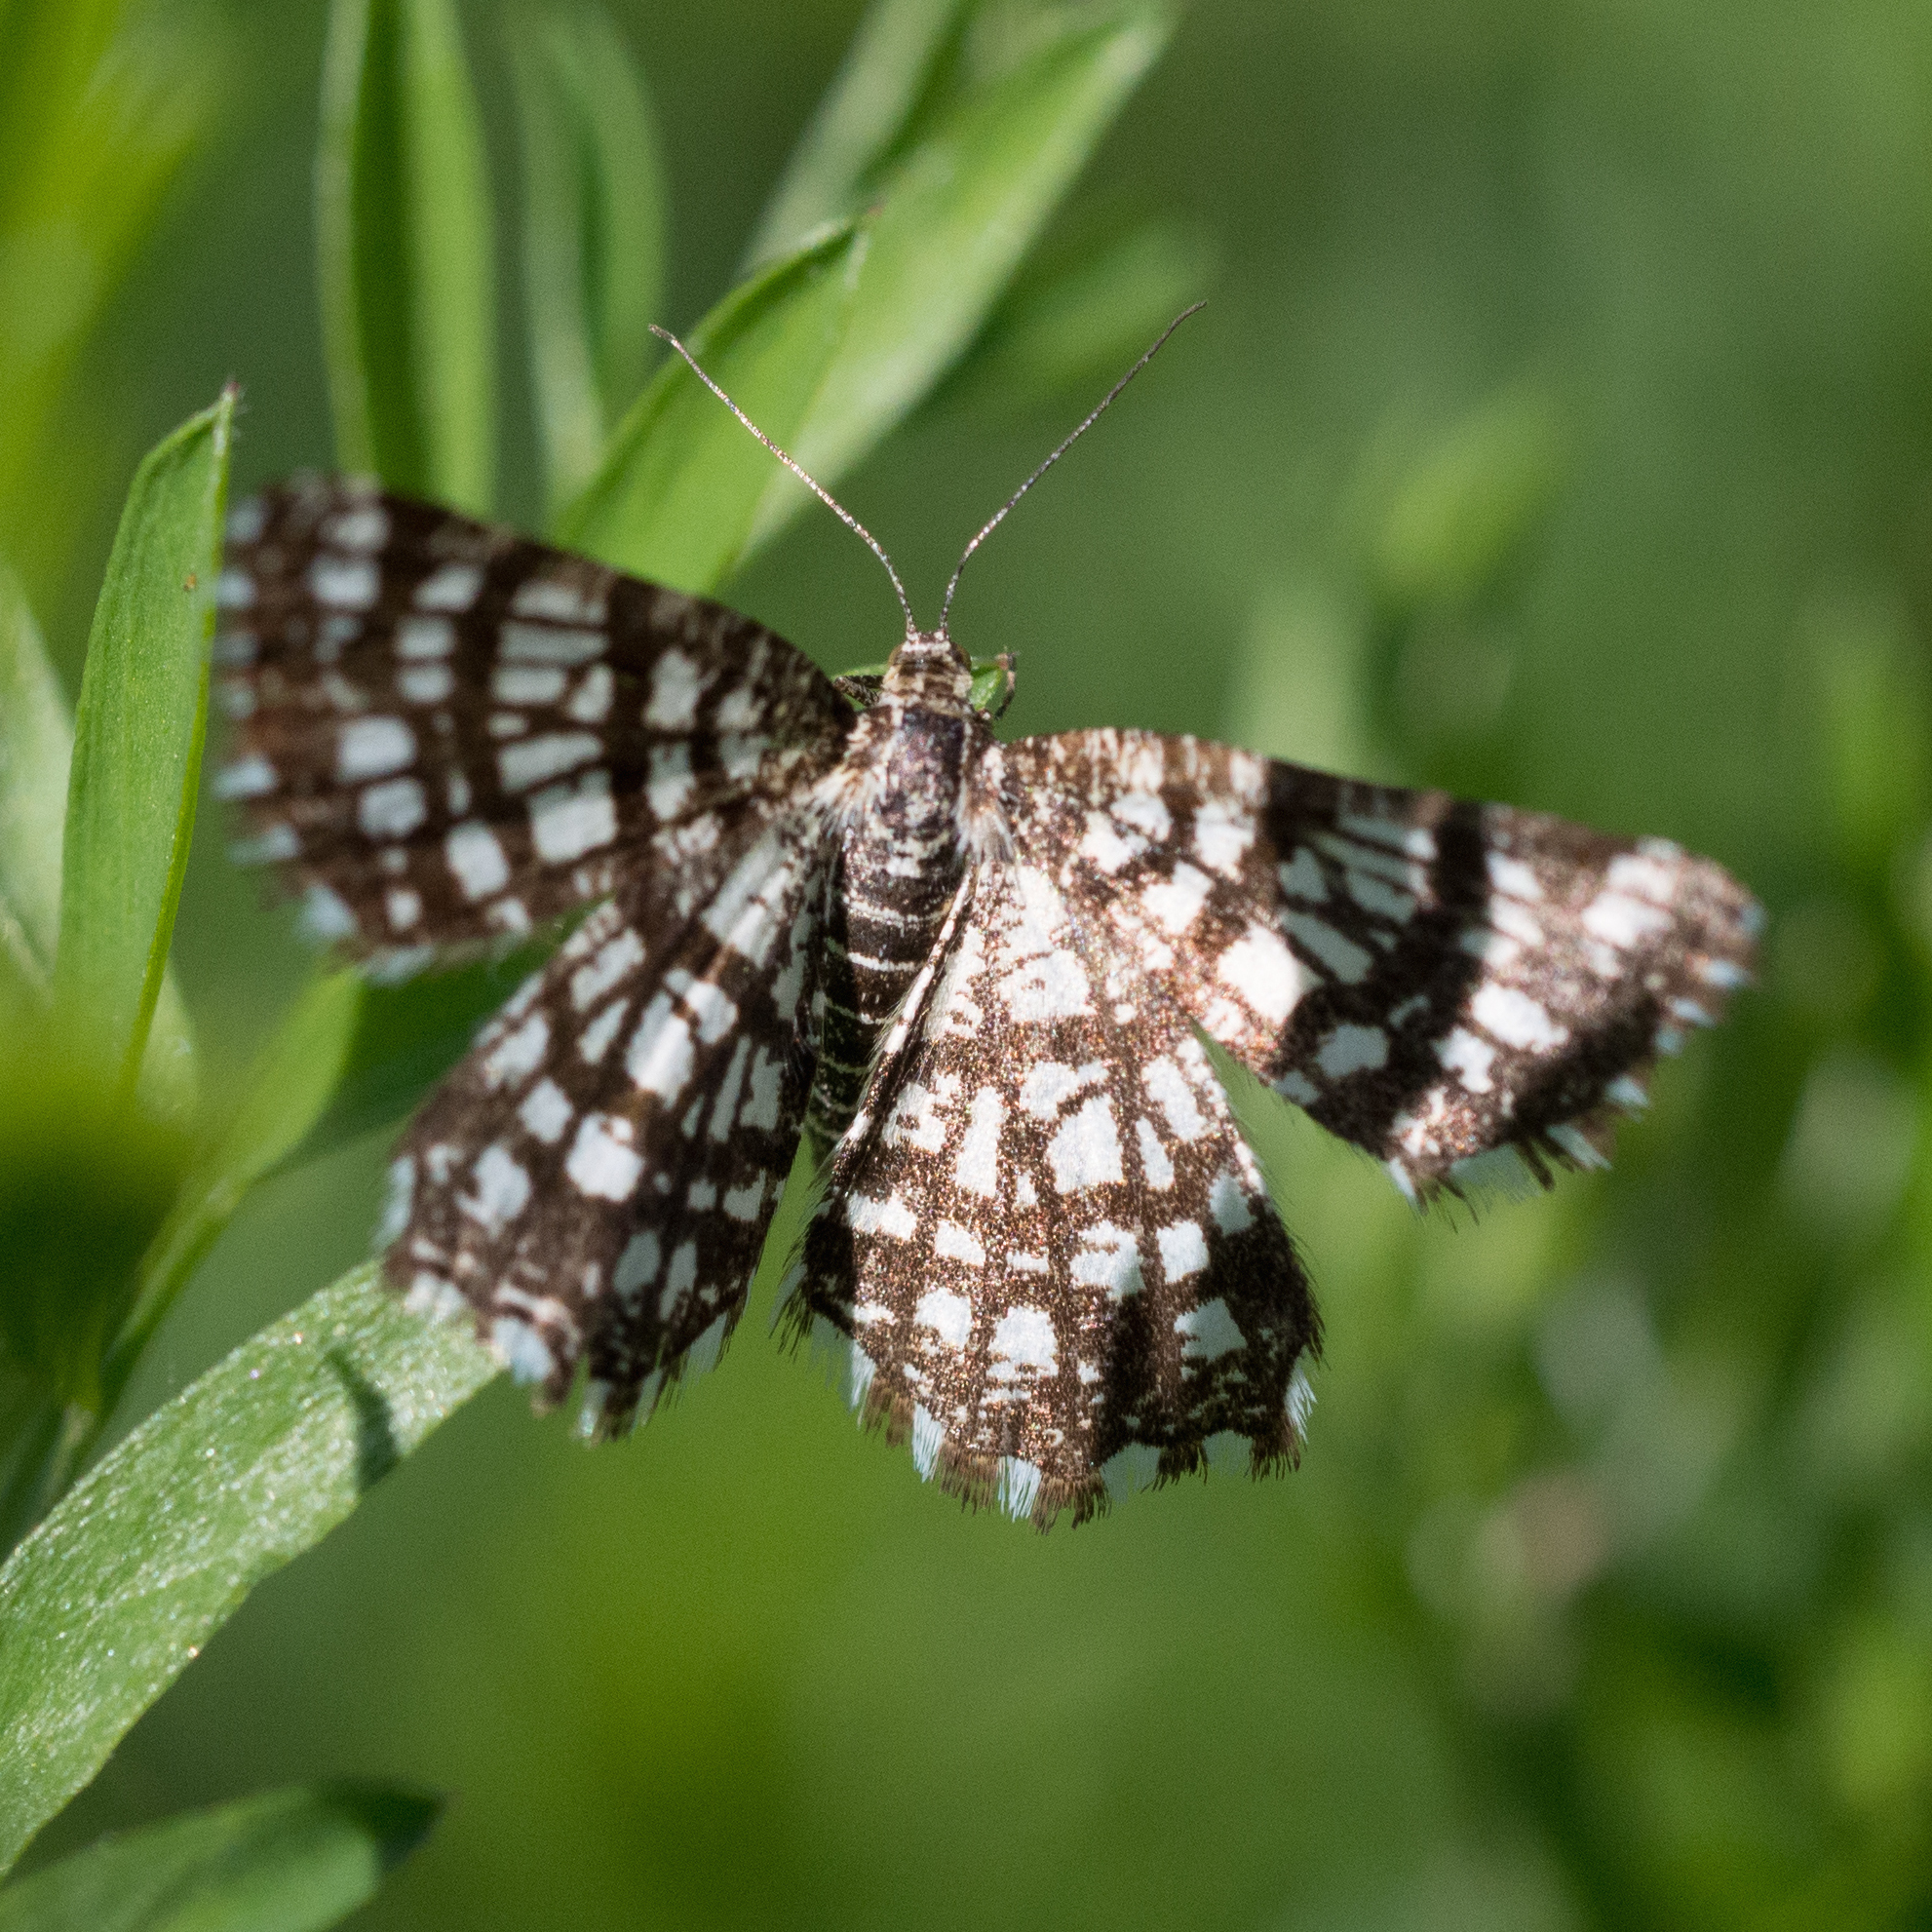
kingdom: Animalia
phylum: Arthropoda
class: Insecta
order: Lepidoptera
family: Geometridae
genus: Chiasmia
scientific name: Chiasmia clathrata
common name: Latticed heath
